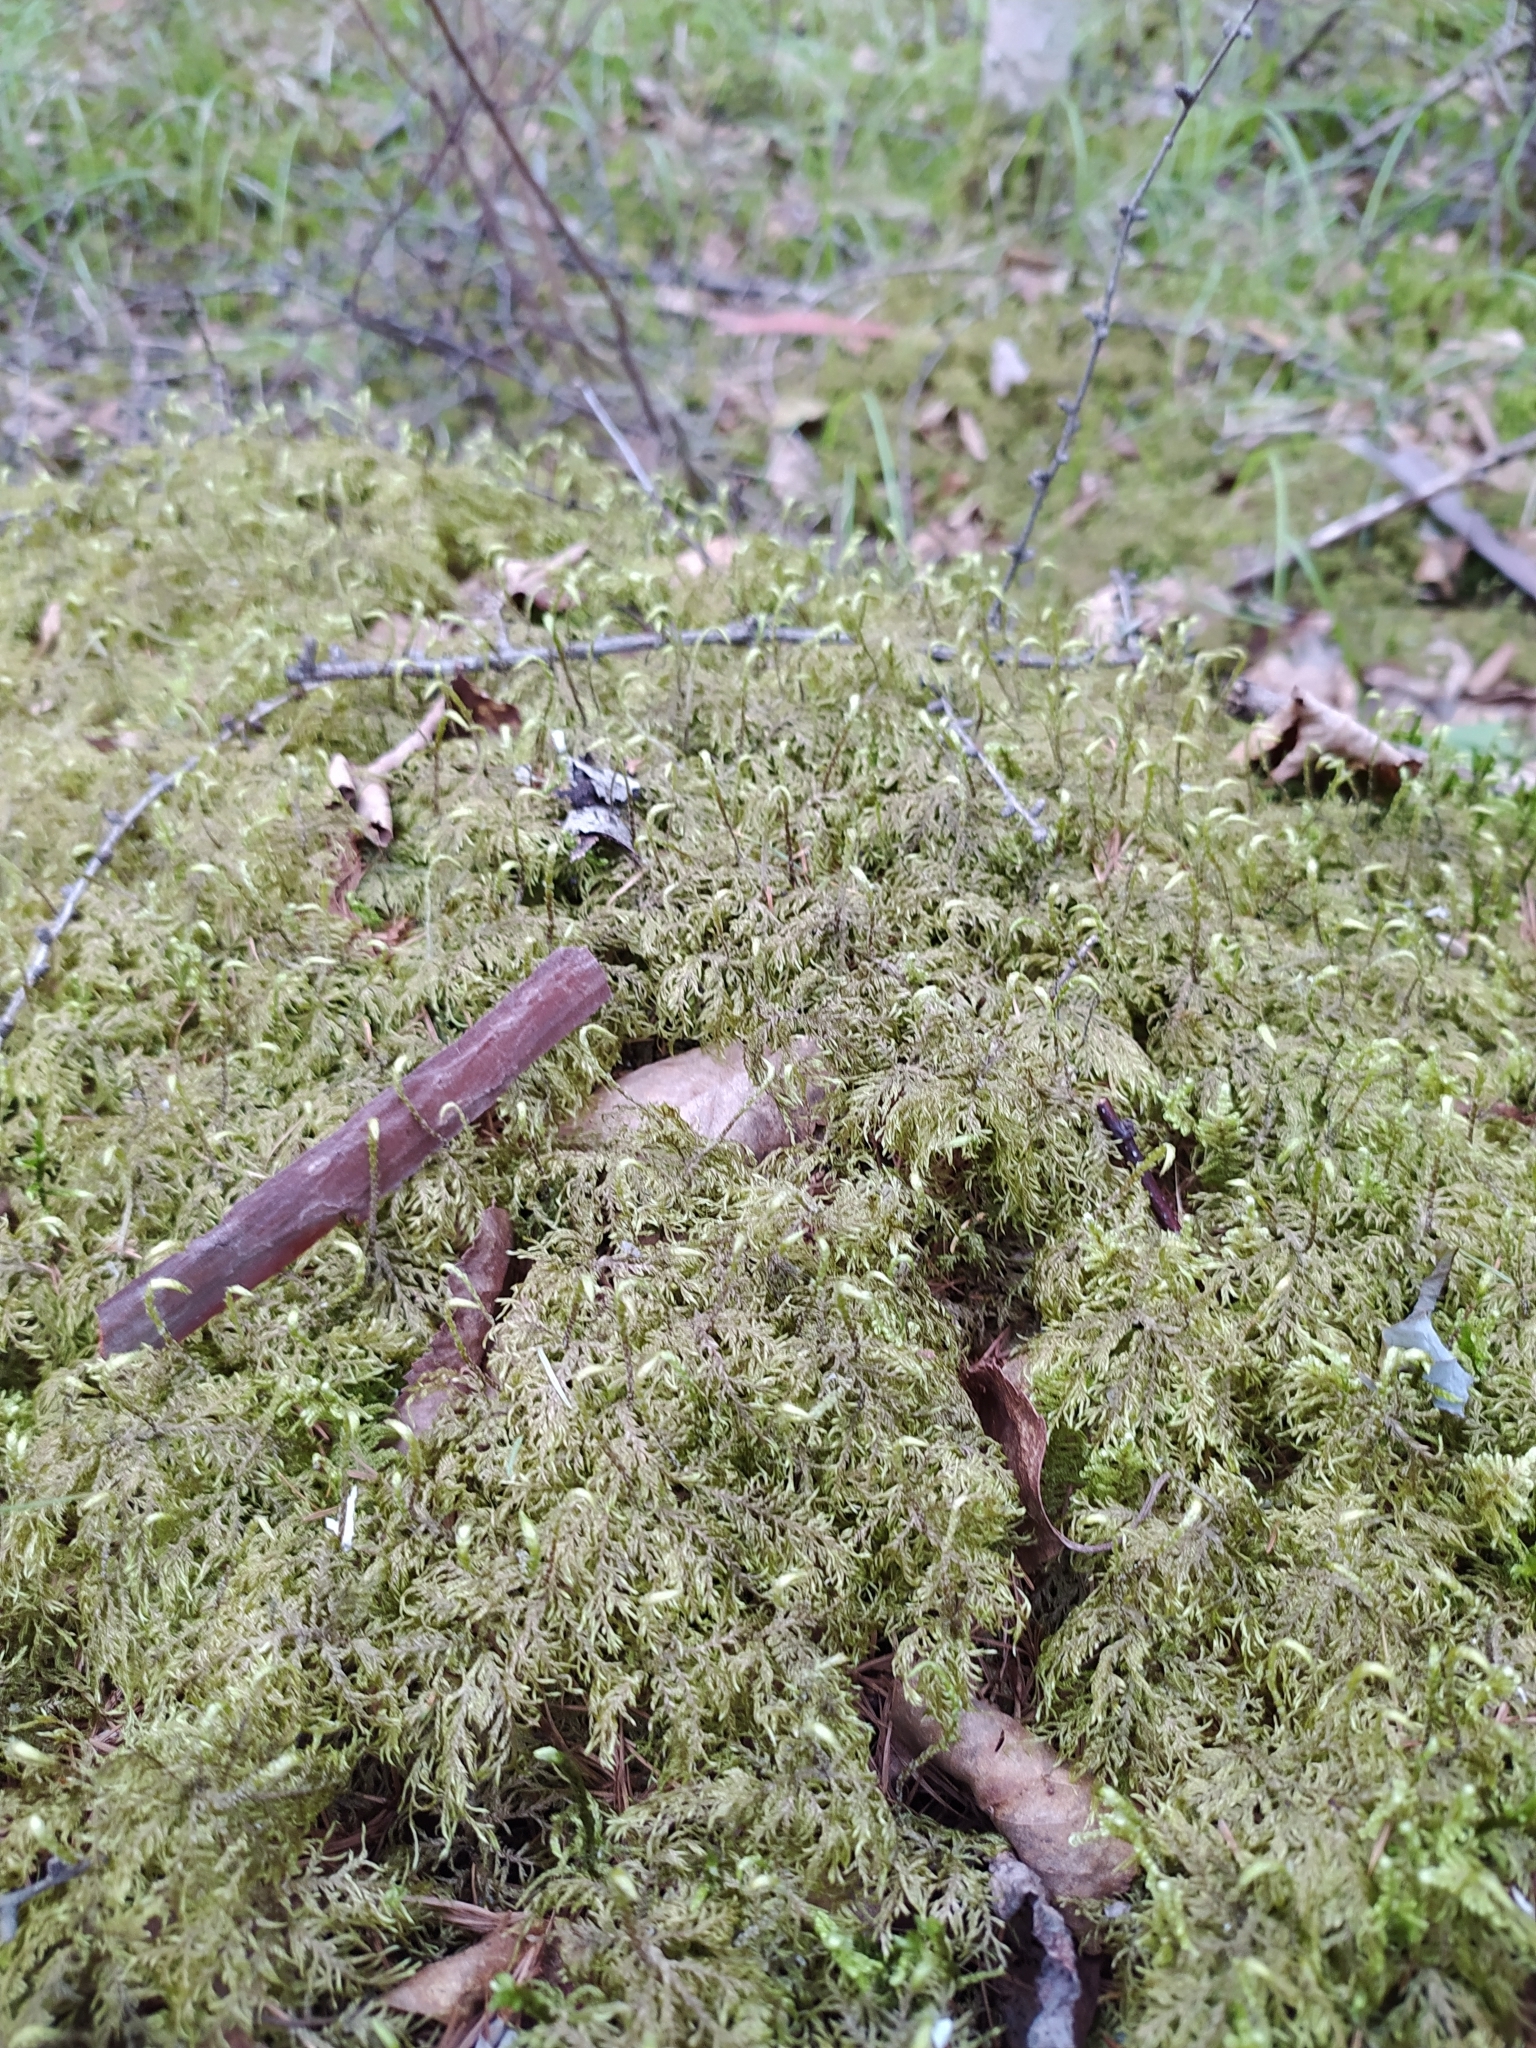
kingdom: Plantae
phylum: Bryophyta
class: Bryopsida
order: Hypnales
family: Hylocomiaceae
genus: Hylocomium
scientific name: Hylocomium splendens
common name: Stairstep moss
